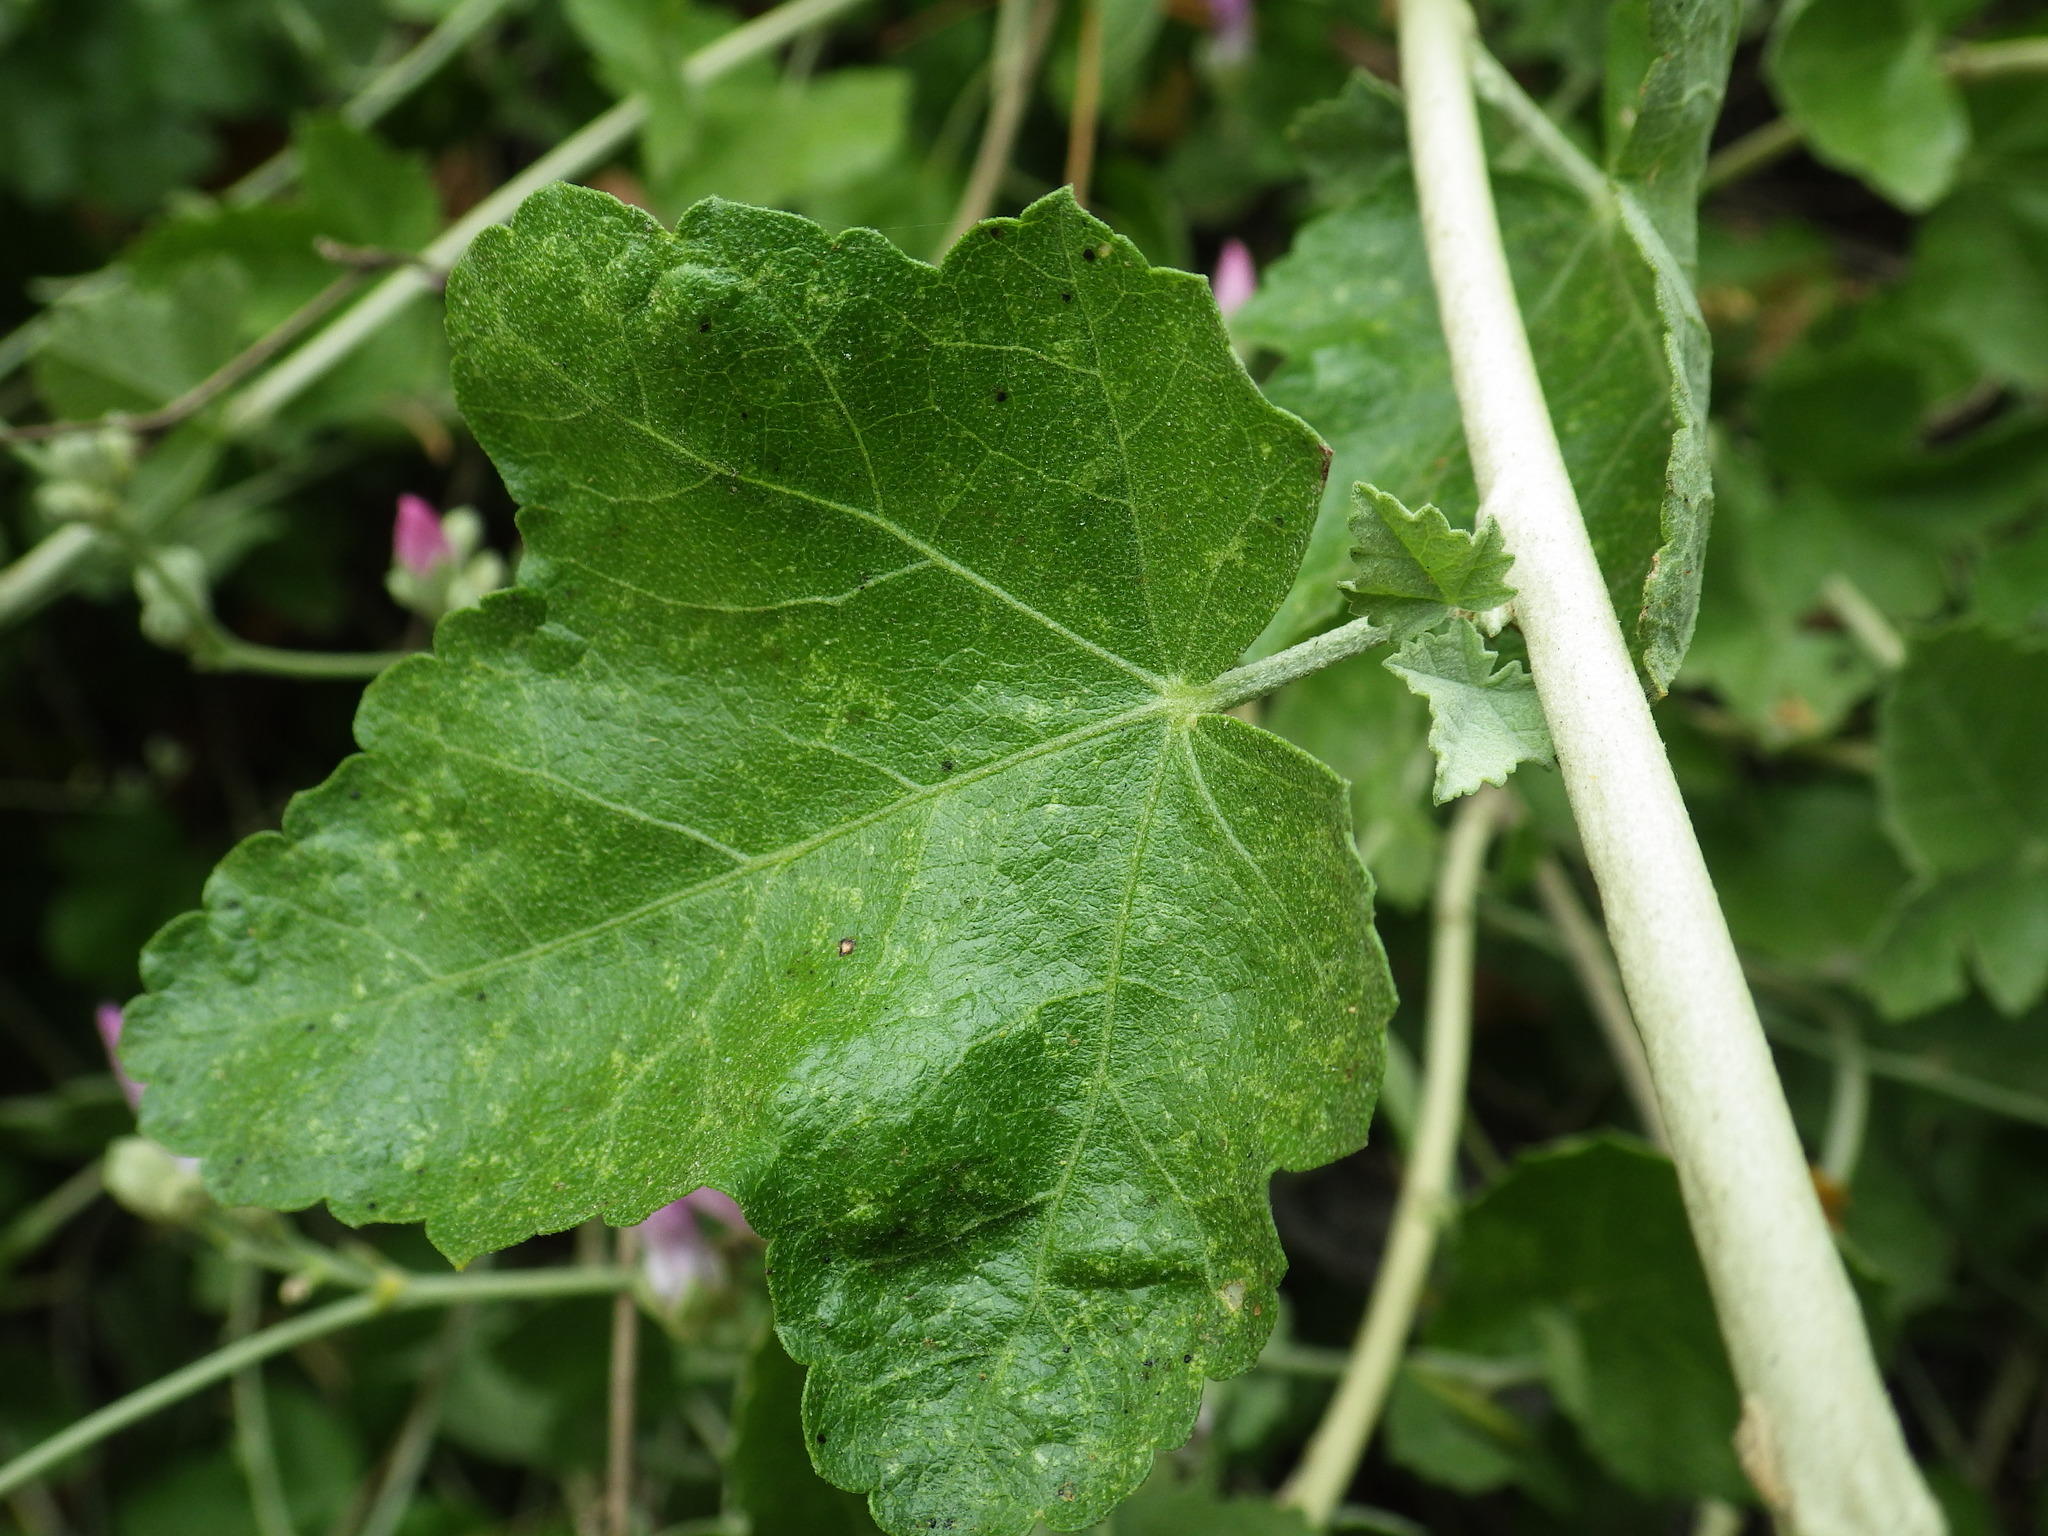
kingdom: Plantae
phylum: Tracheophyta
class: Magnoliopsida
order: Malvales
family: Malvaceae
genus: Malacothamnus
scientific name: Malacothamnus fasciculatus
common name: Sant cruz island bush-mallow
